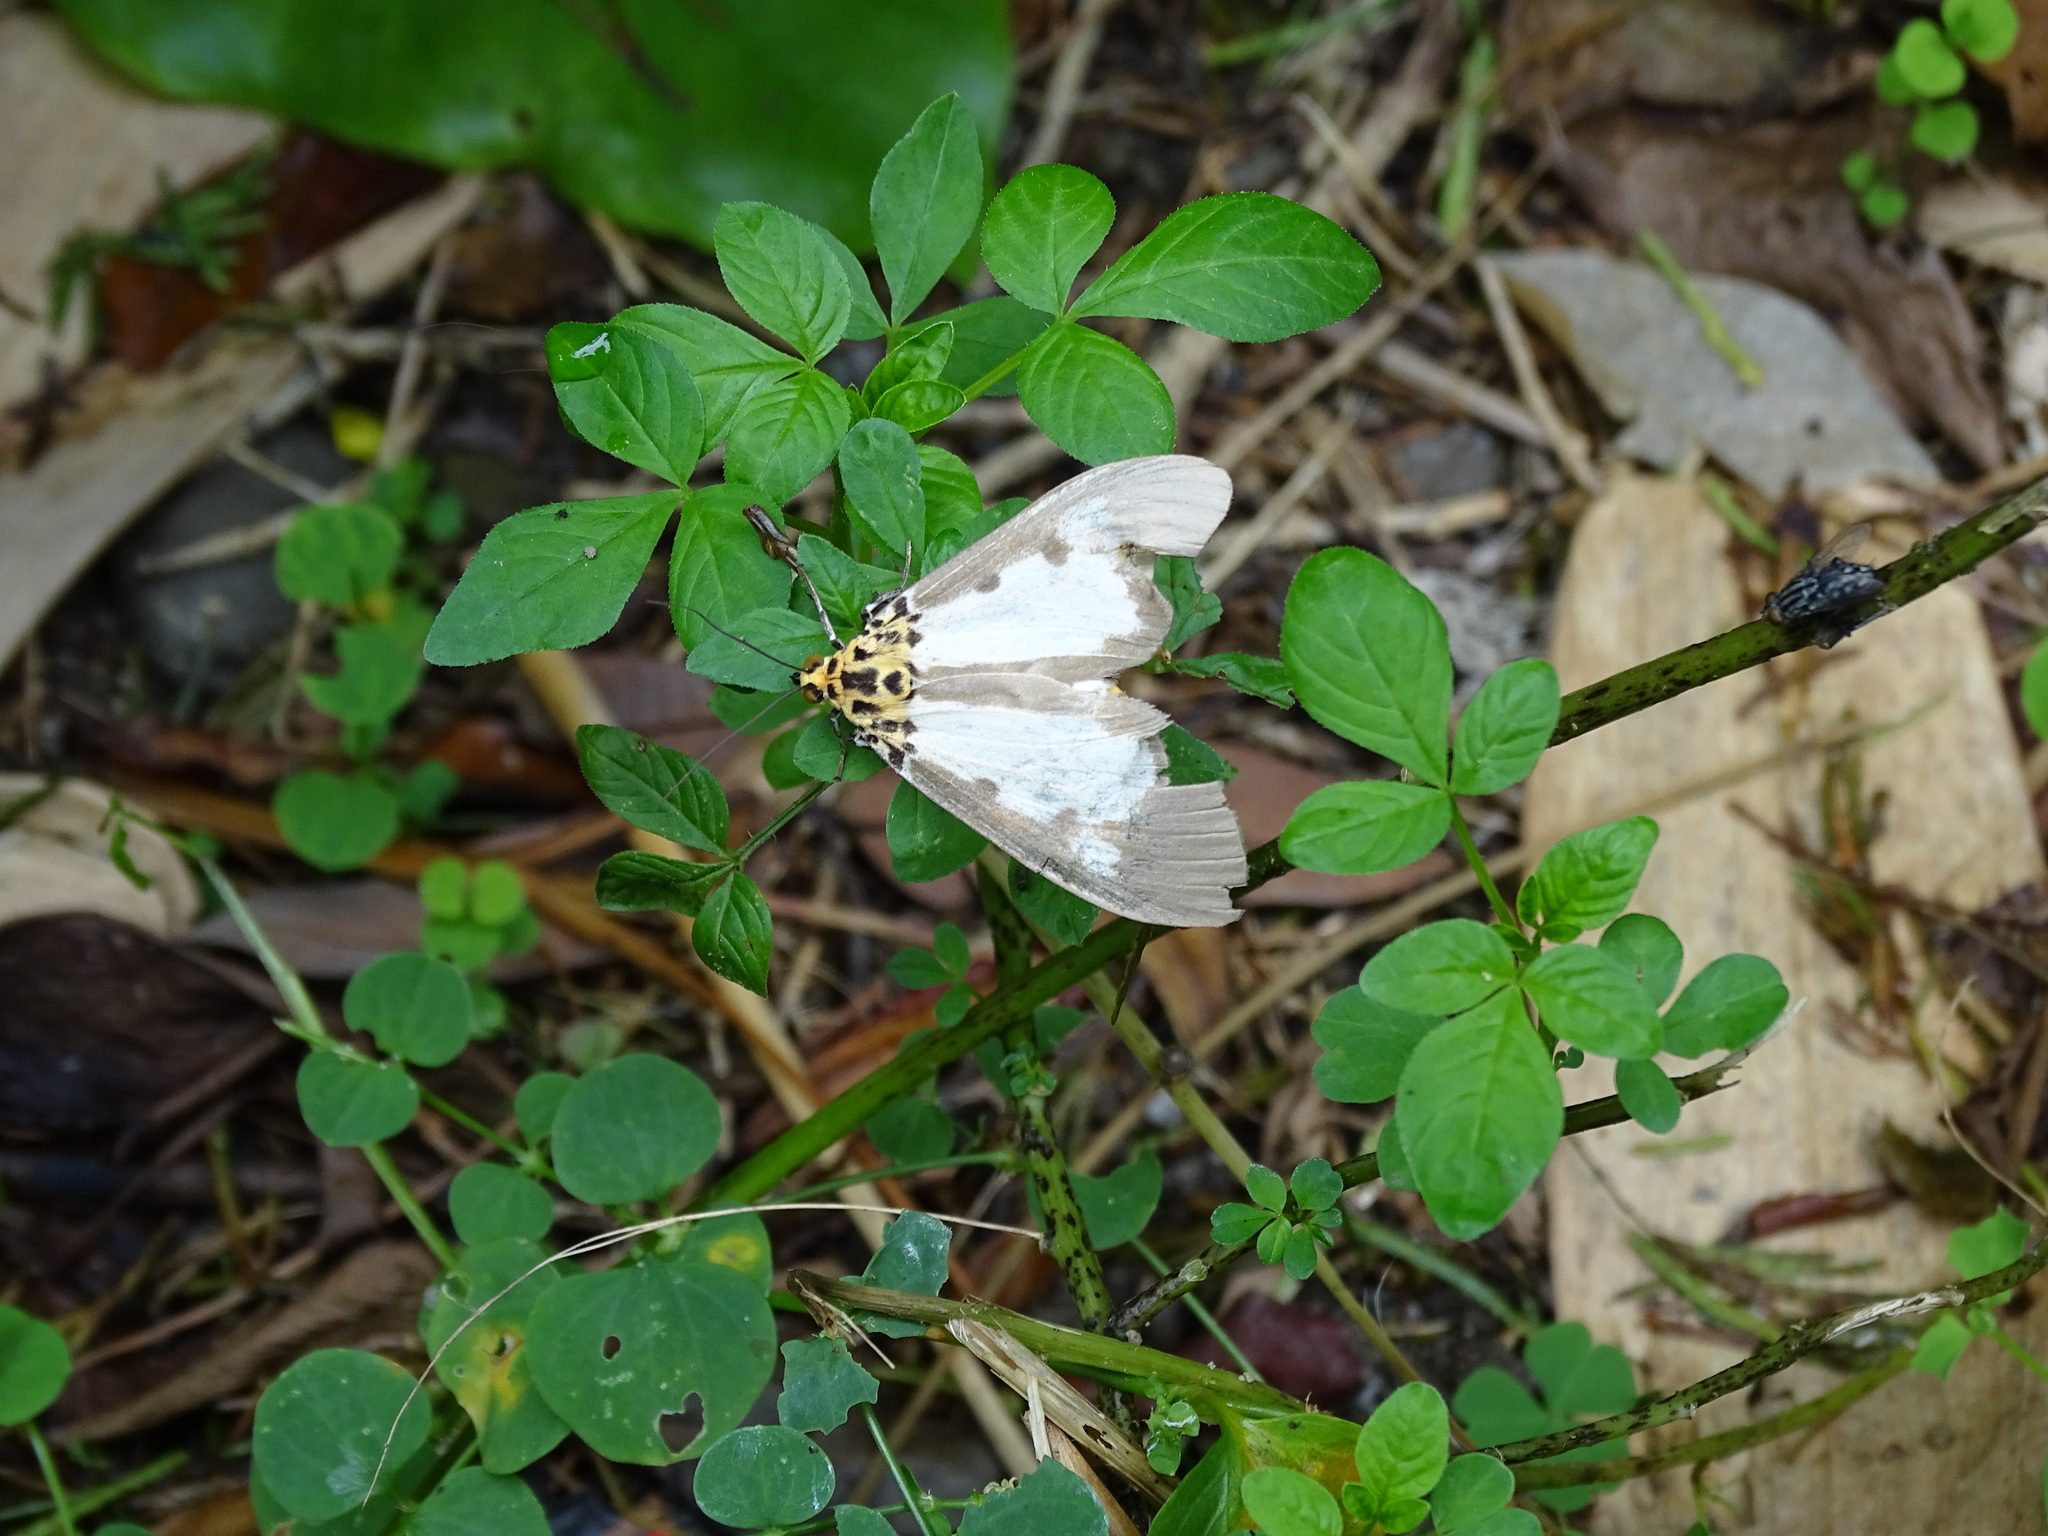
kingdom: Animalia
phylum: Arthropoda
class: Insecta
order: Lepidoptera
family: Erebidae
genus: Asota
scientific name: Asota plana
